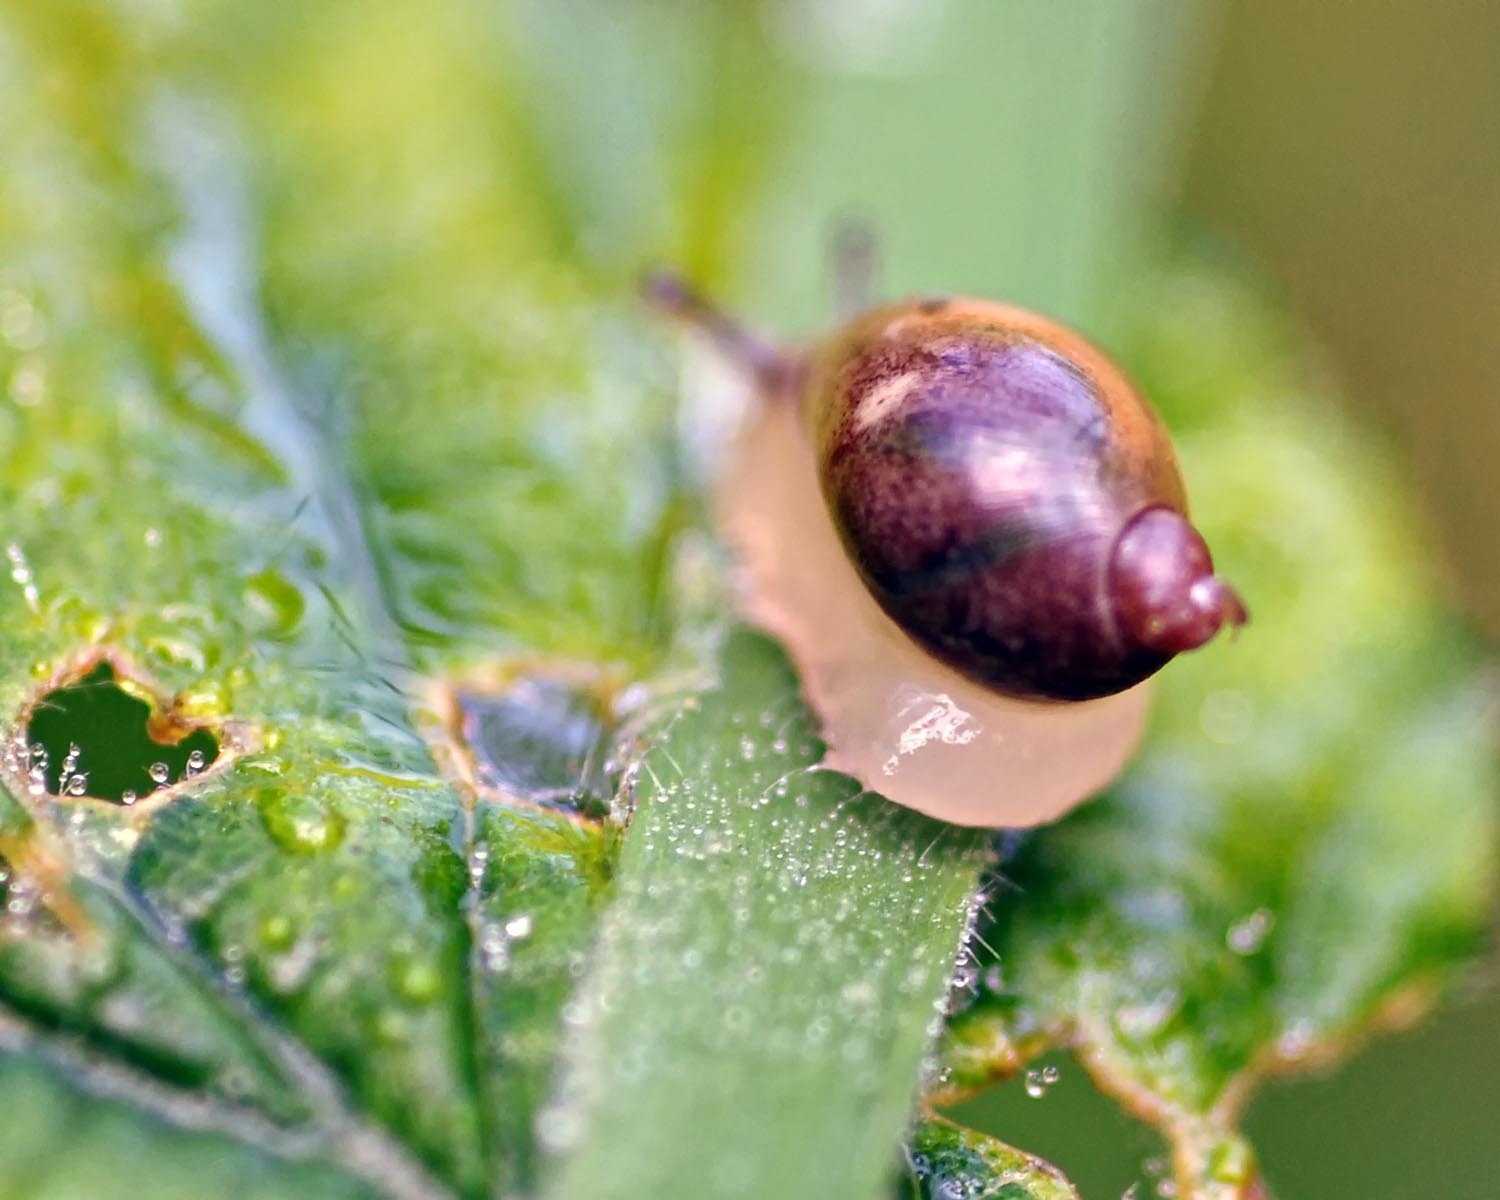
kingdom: Animalia
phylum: Mollusca
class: Gastropoda
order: Stylommatophora
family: Succineidae
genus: Succinea
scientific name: Succinea putris
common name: European ambersnail
